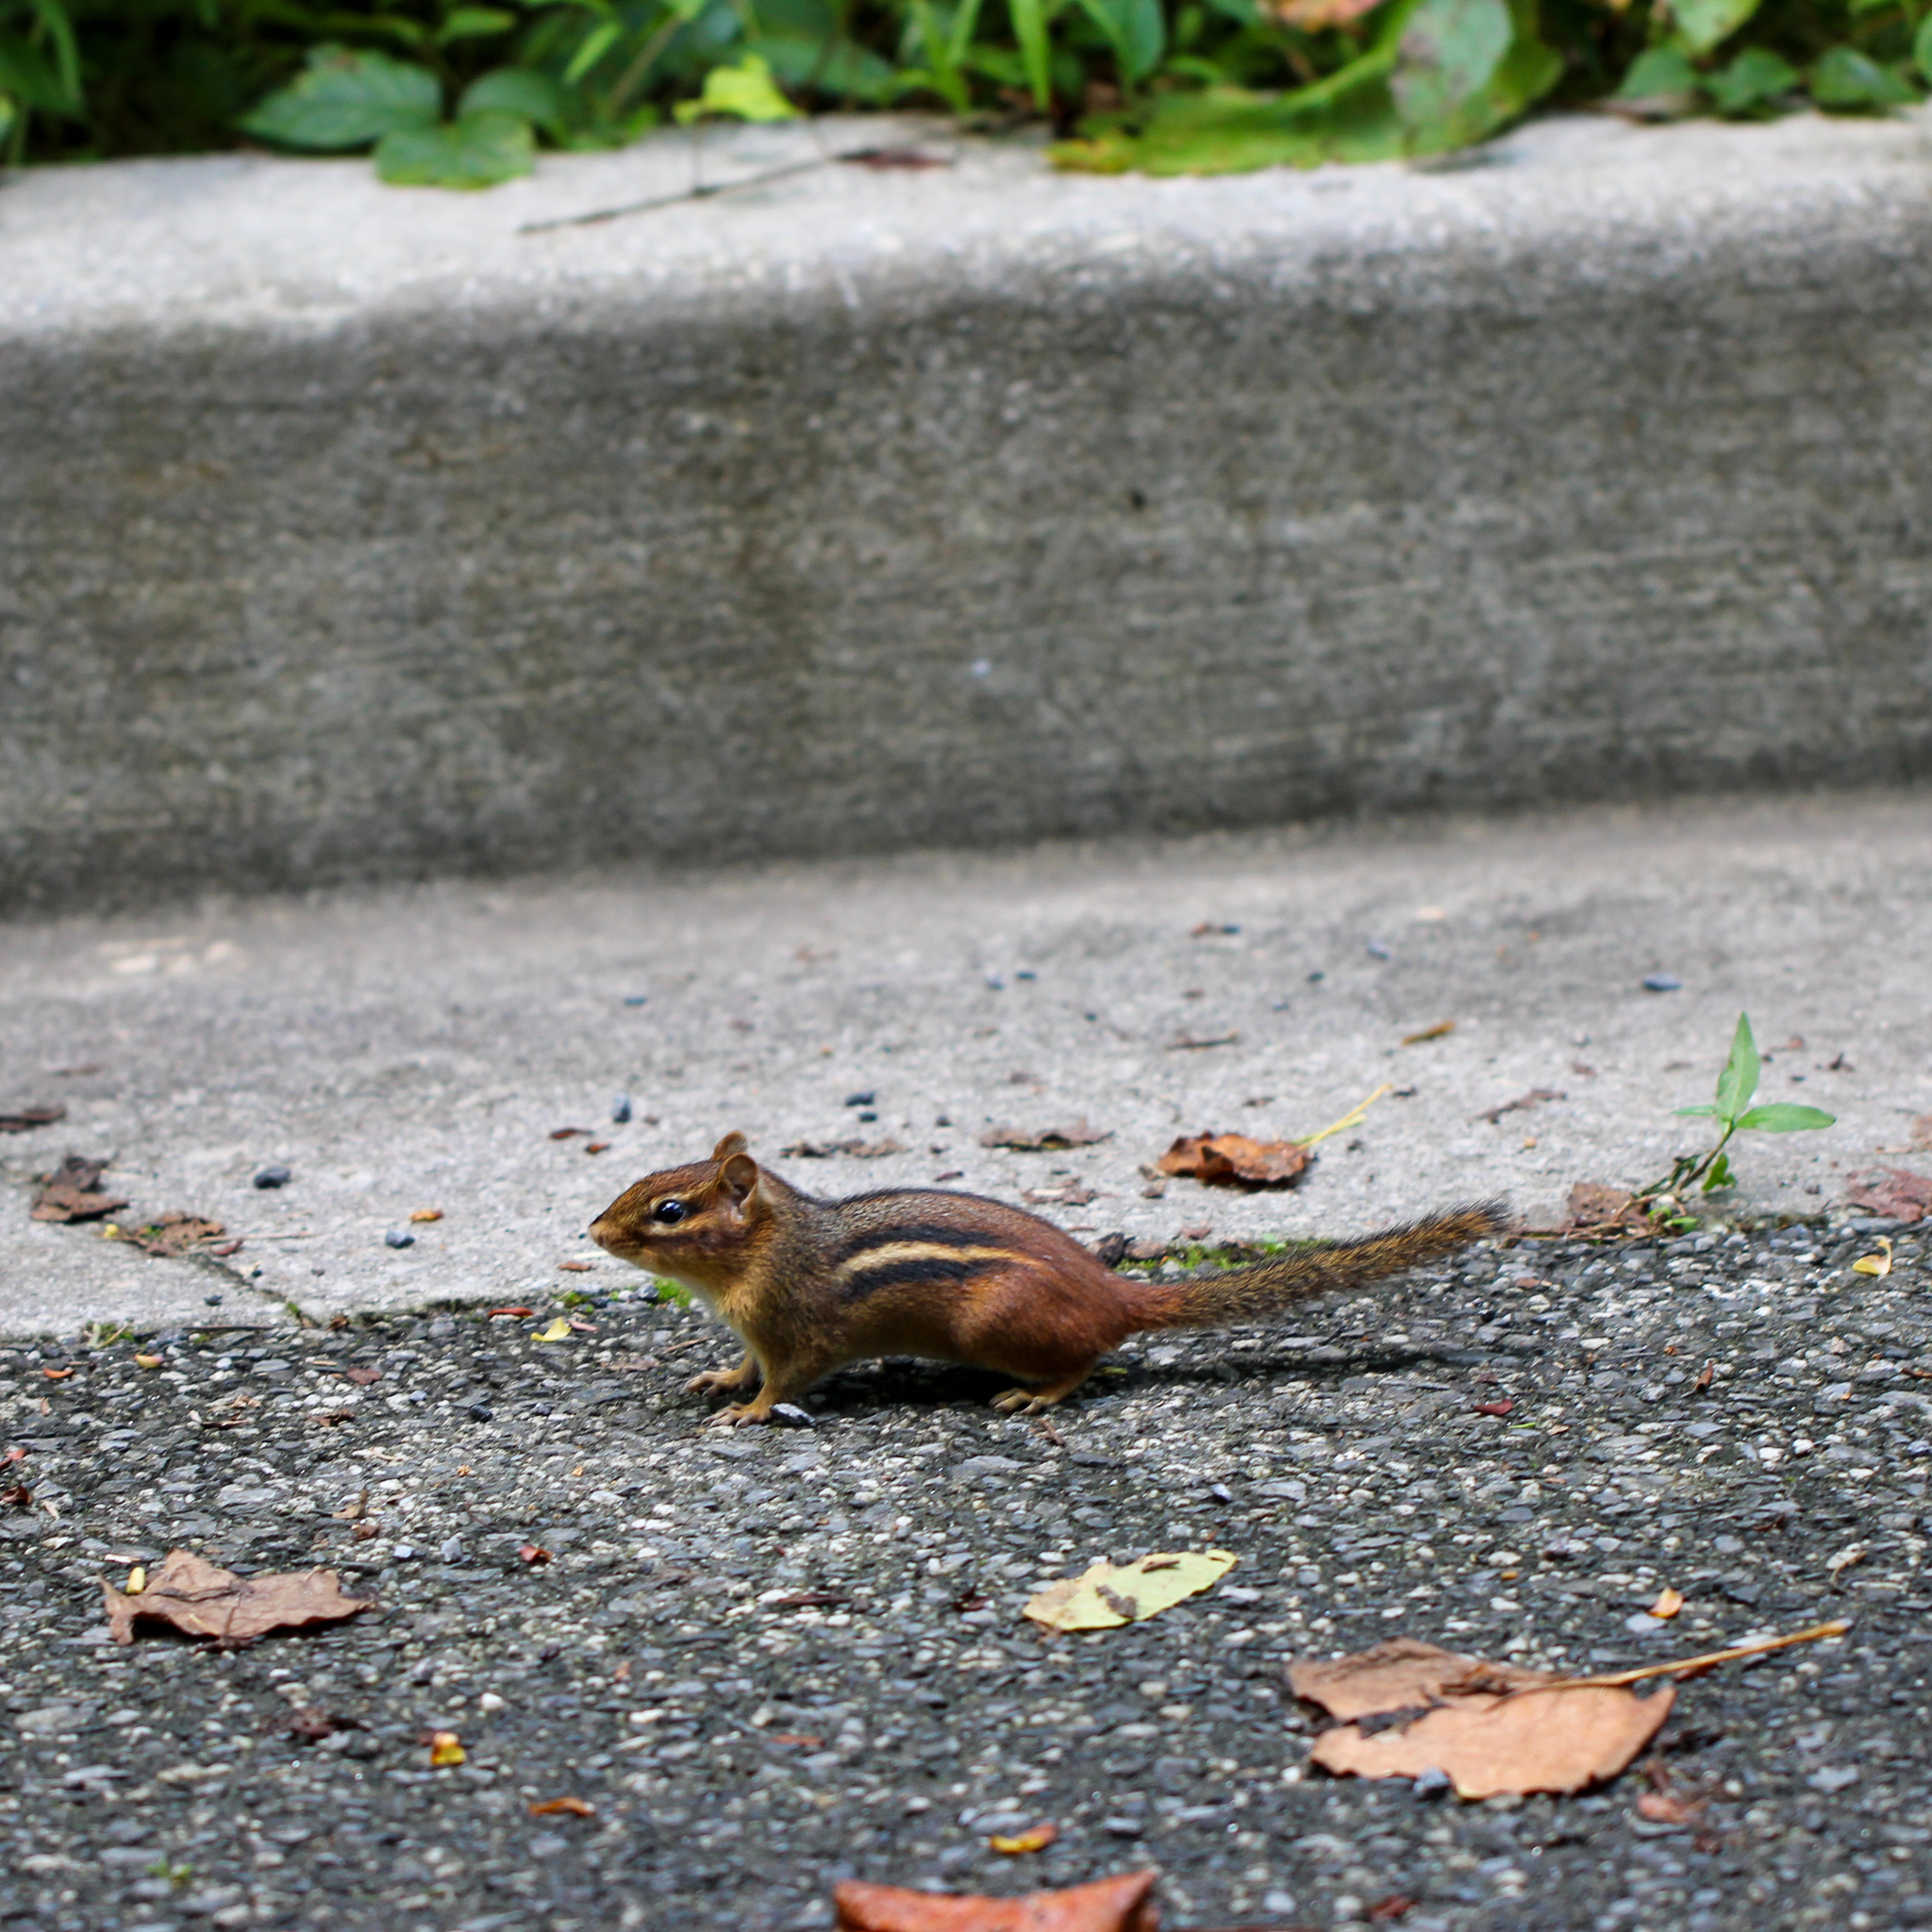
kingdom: Animalia
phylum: Chordata
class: Mammalia
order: Rodentia
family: Sciuridae
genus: Tamias
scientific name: Tamias striatus
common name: Eastern chipmunk
